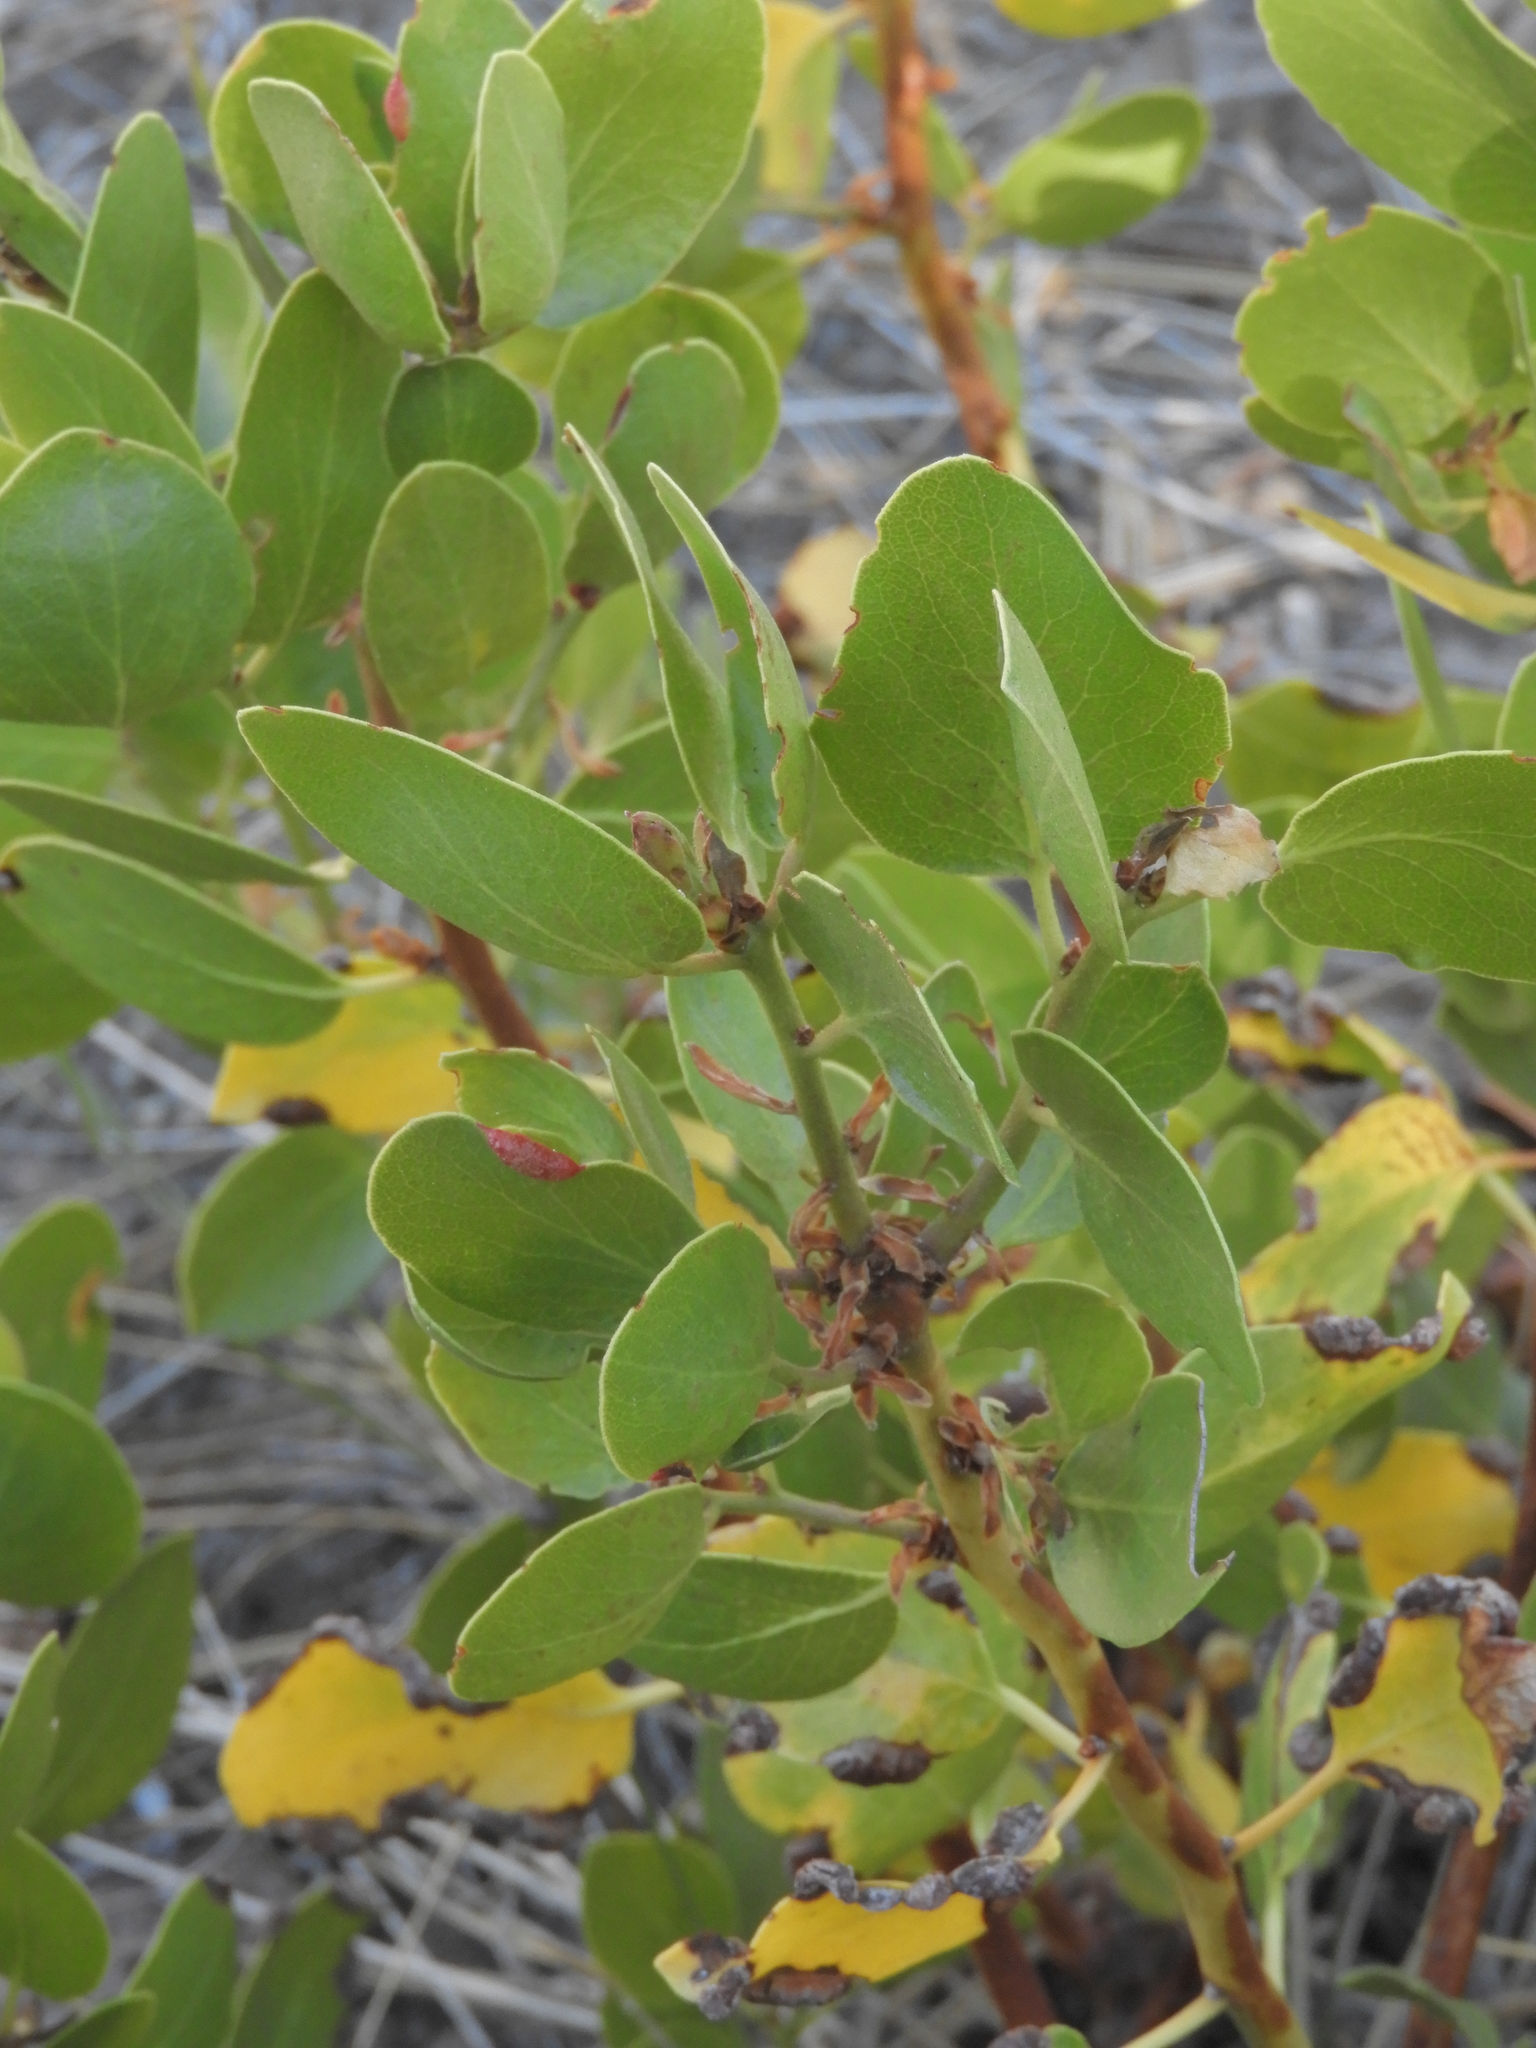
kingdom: Plantae
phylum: Tracheophyta
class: Magnoliopsida
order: Ericales
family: Ericaceae
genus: Arctostaphylos
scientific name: Arctostaphylos patula
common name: Green-leaf manzanita
